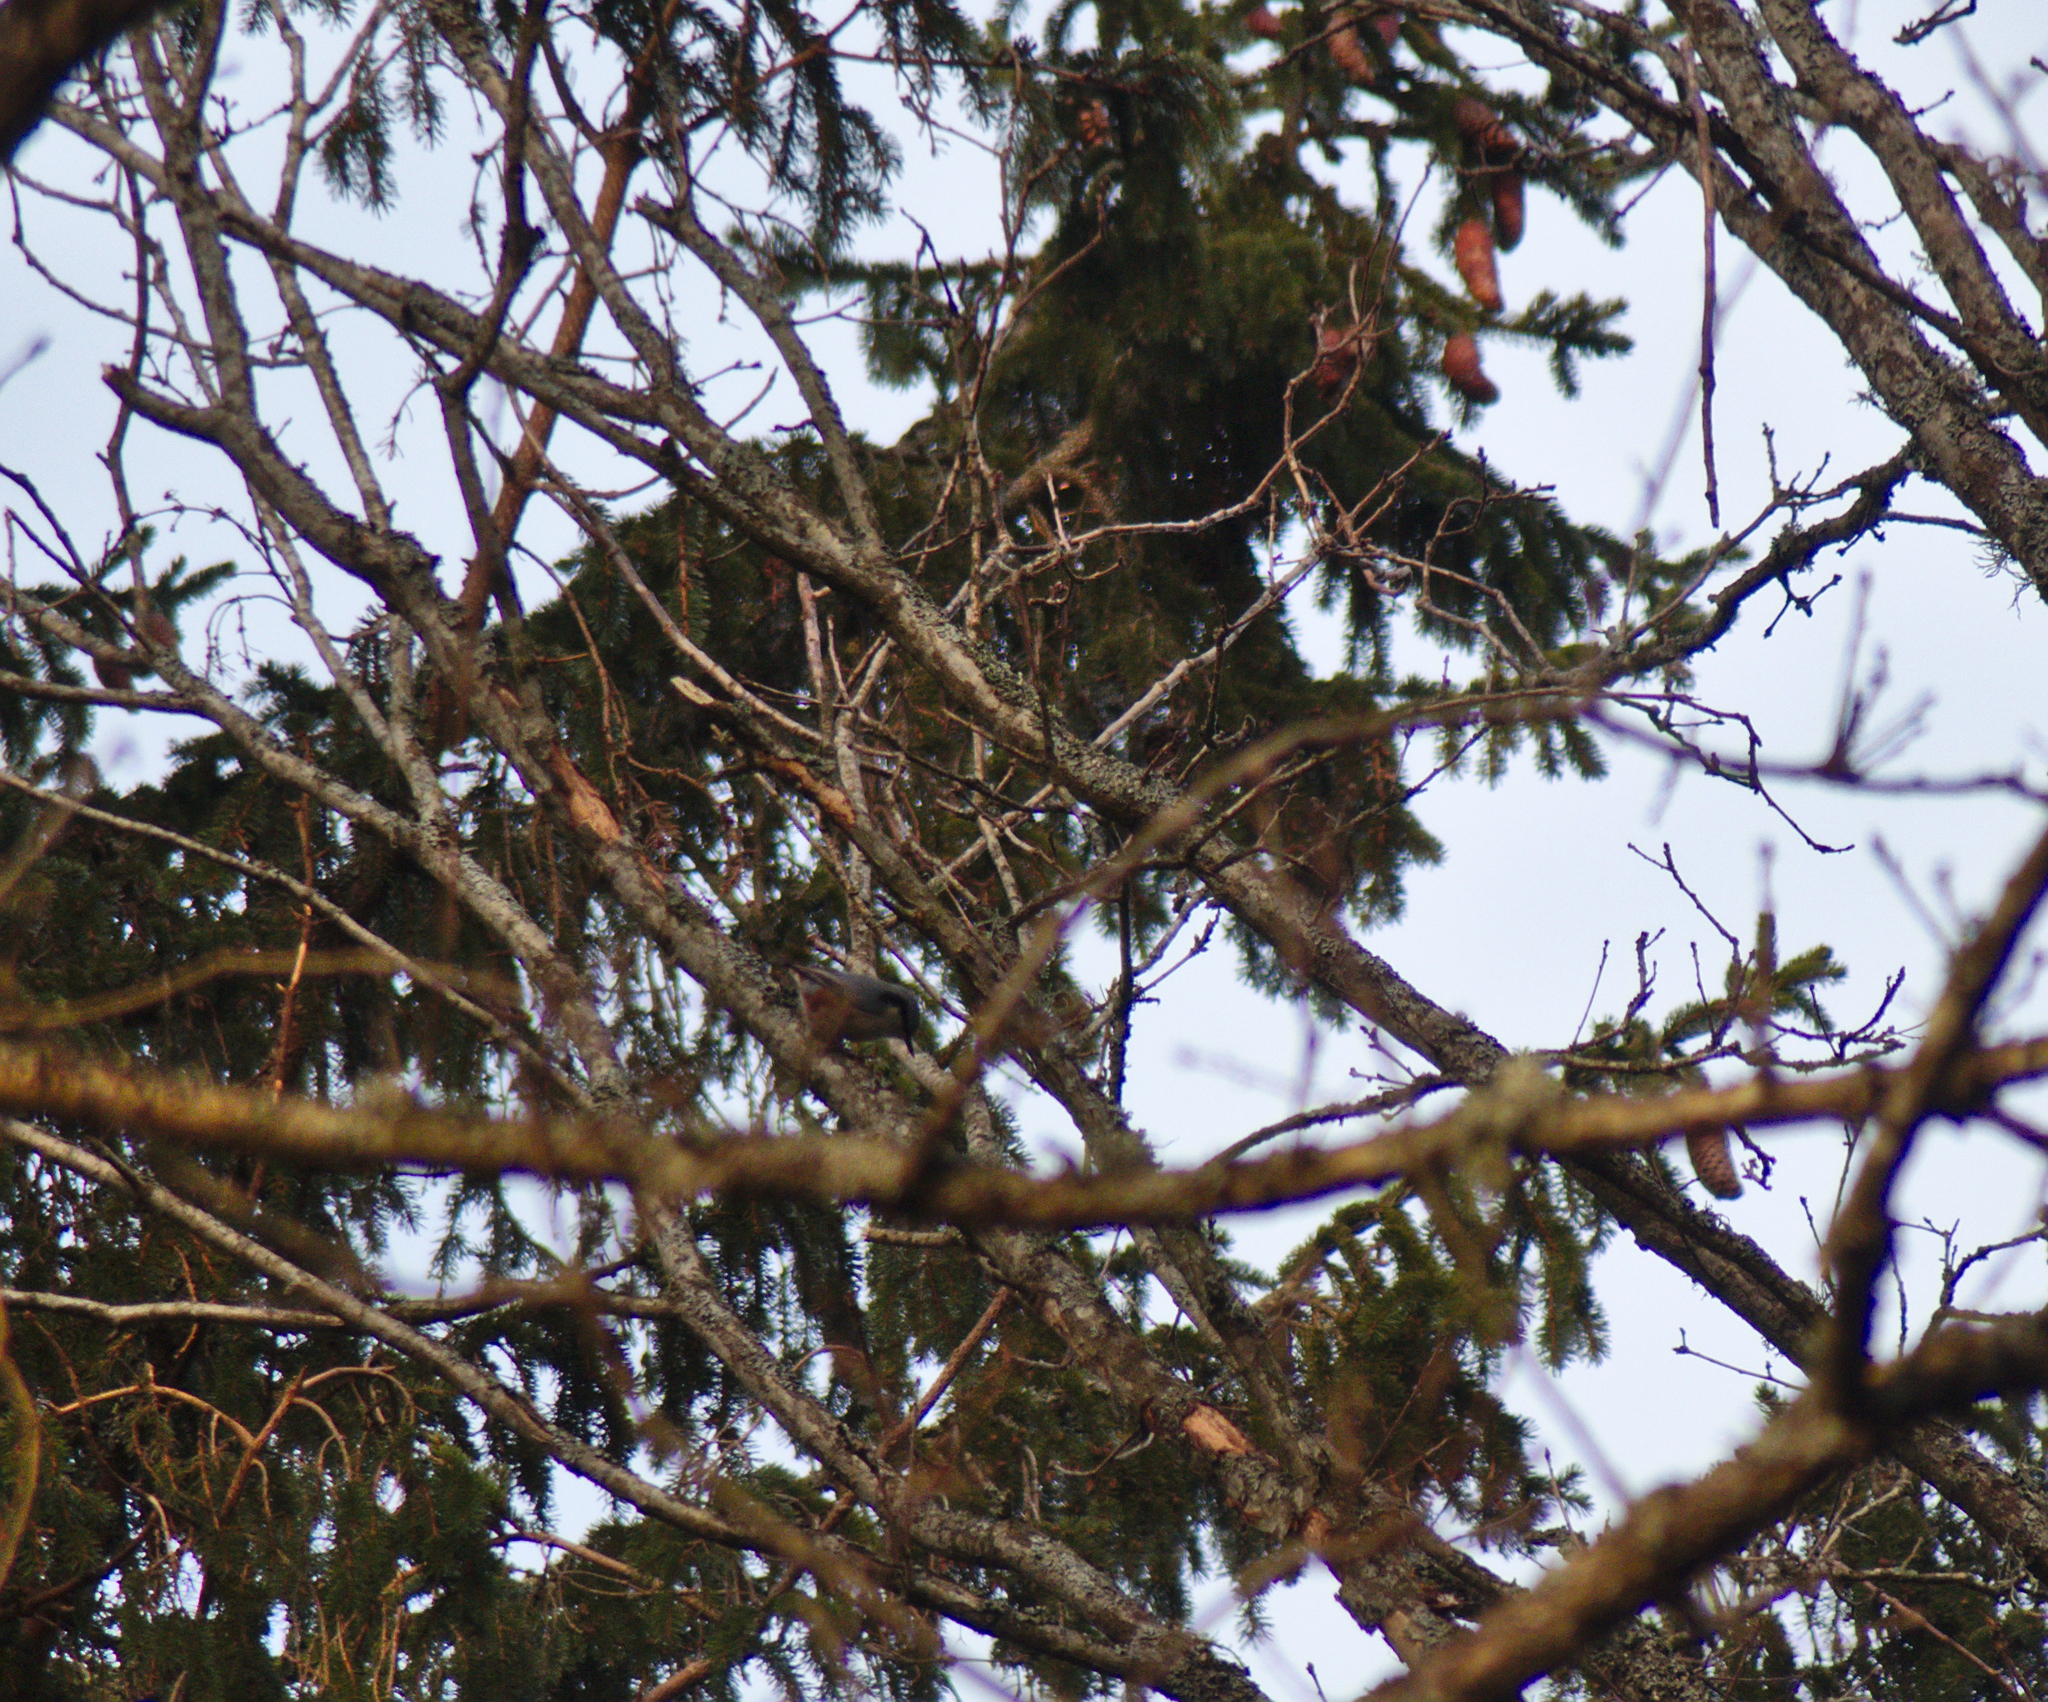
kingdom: Animalia
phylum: Chordata
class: Aves
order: Passeriformes
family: Sittidae
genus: Sitta
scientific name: Sitta europaea
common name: Eurasian nuthatch
